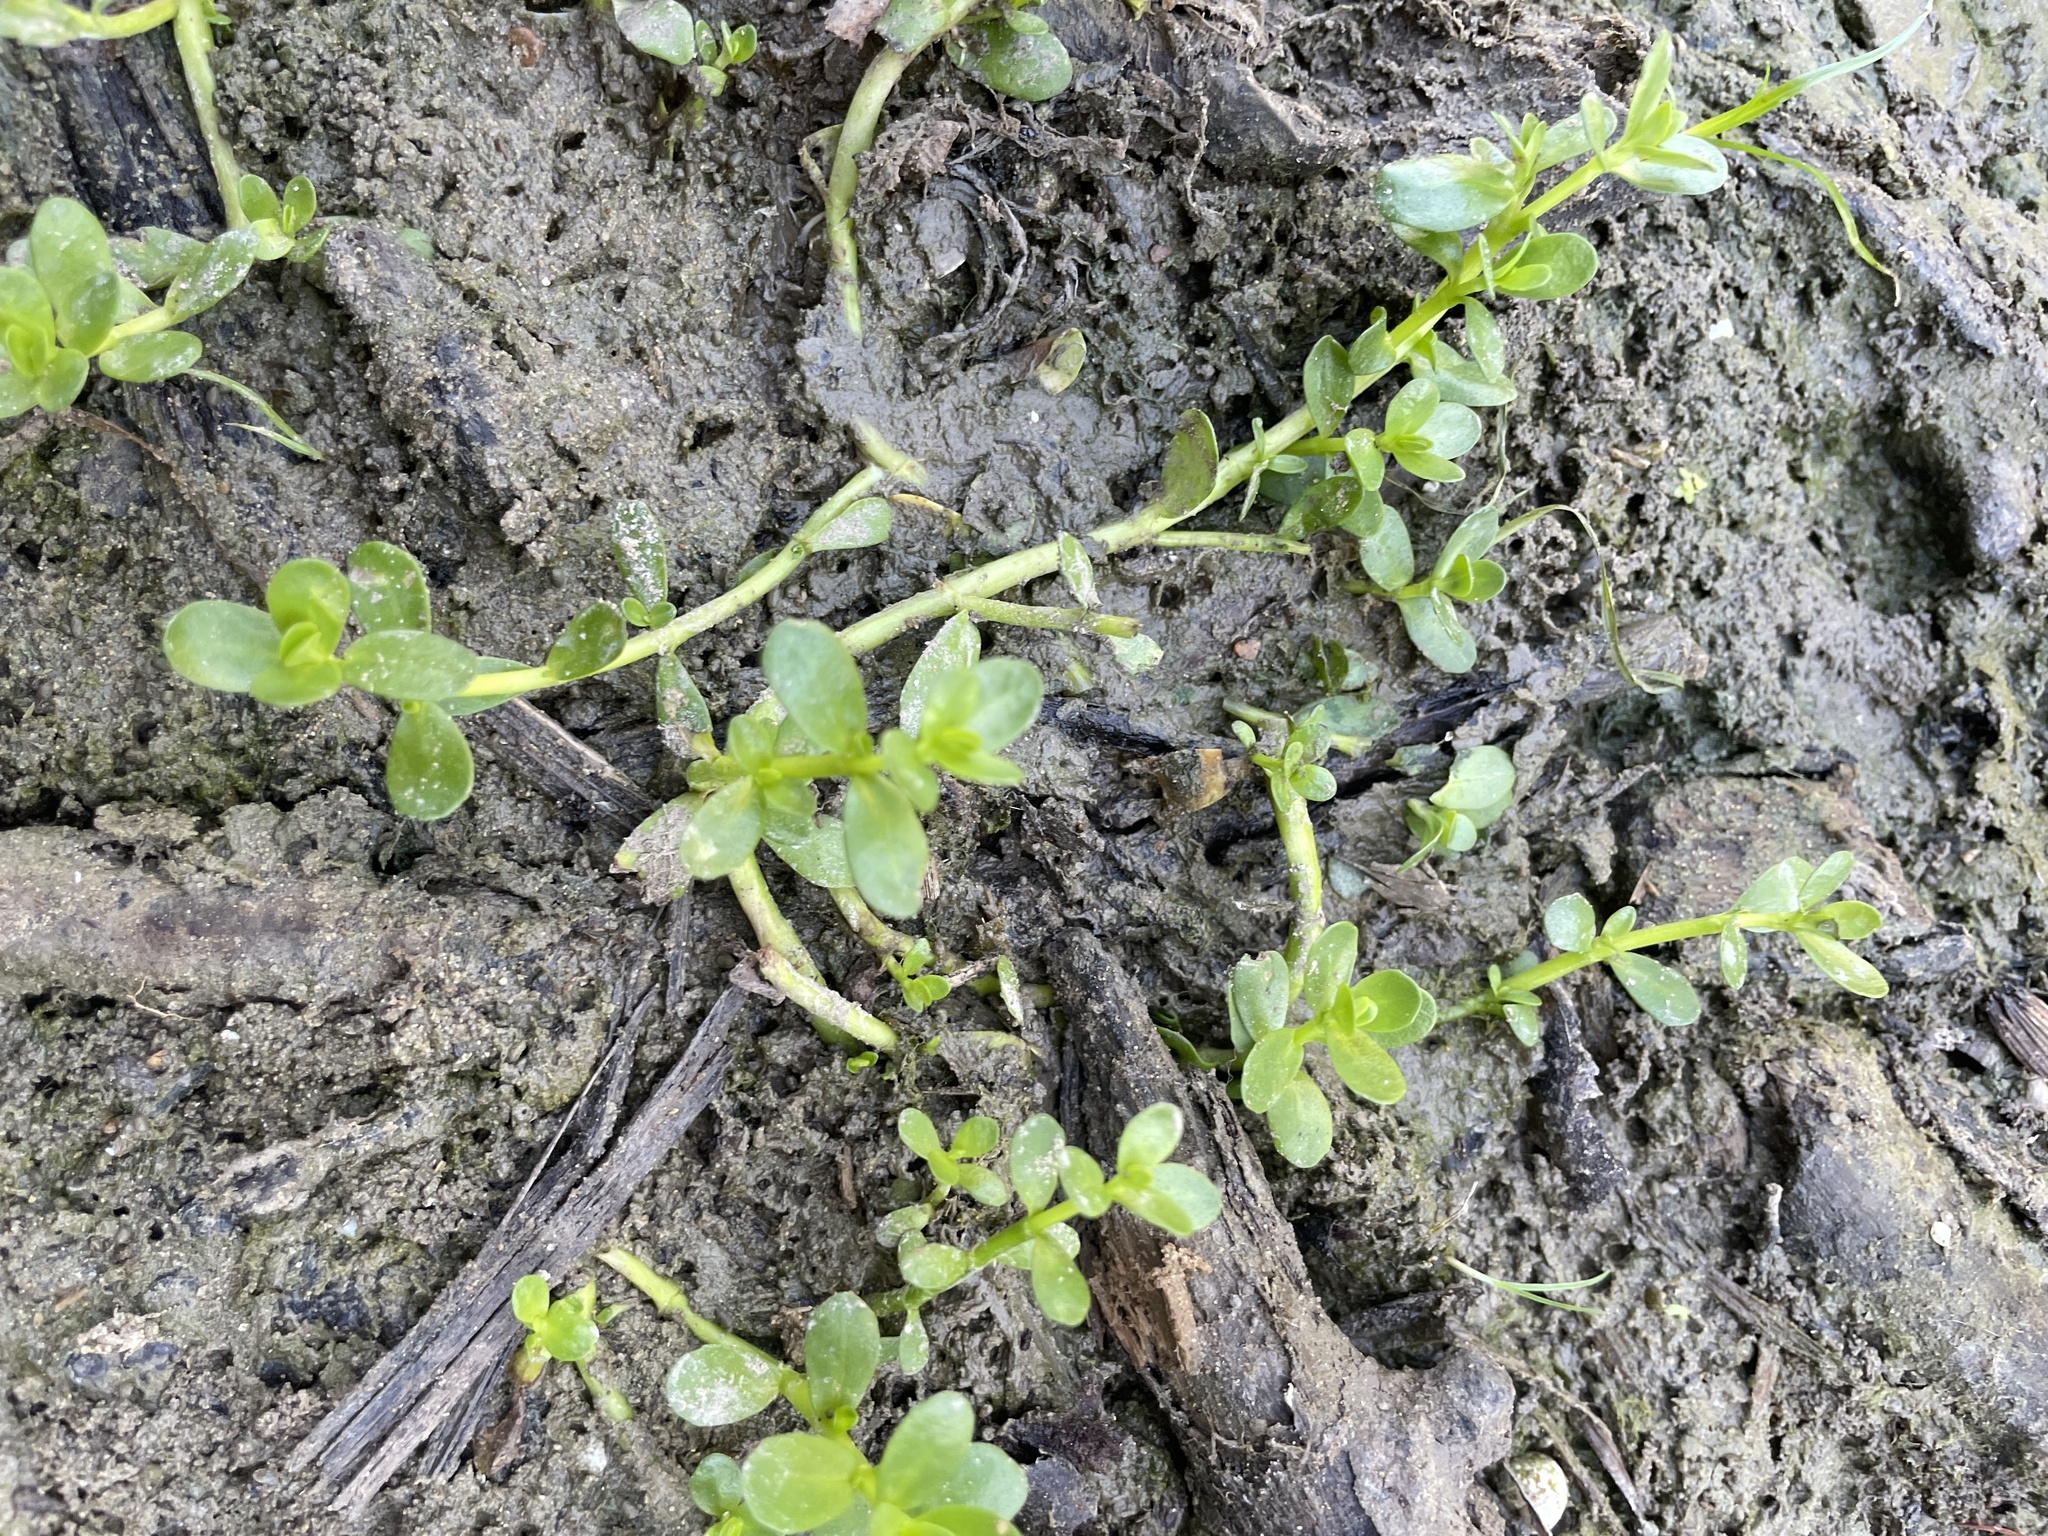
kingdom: Plantae
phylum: Tracheophyta
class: Magnoliopsida
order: Lamiales
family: Plantaginaceae
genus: Bacopa
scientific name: Bacopa monnieri
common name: Indian-pennywort
